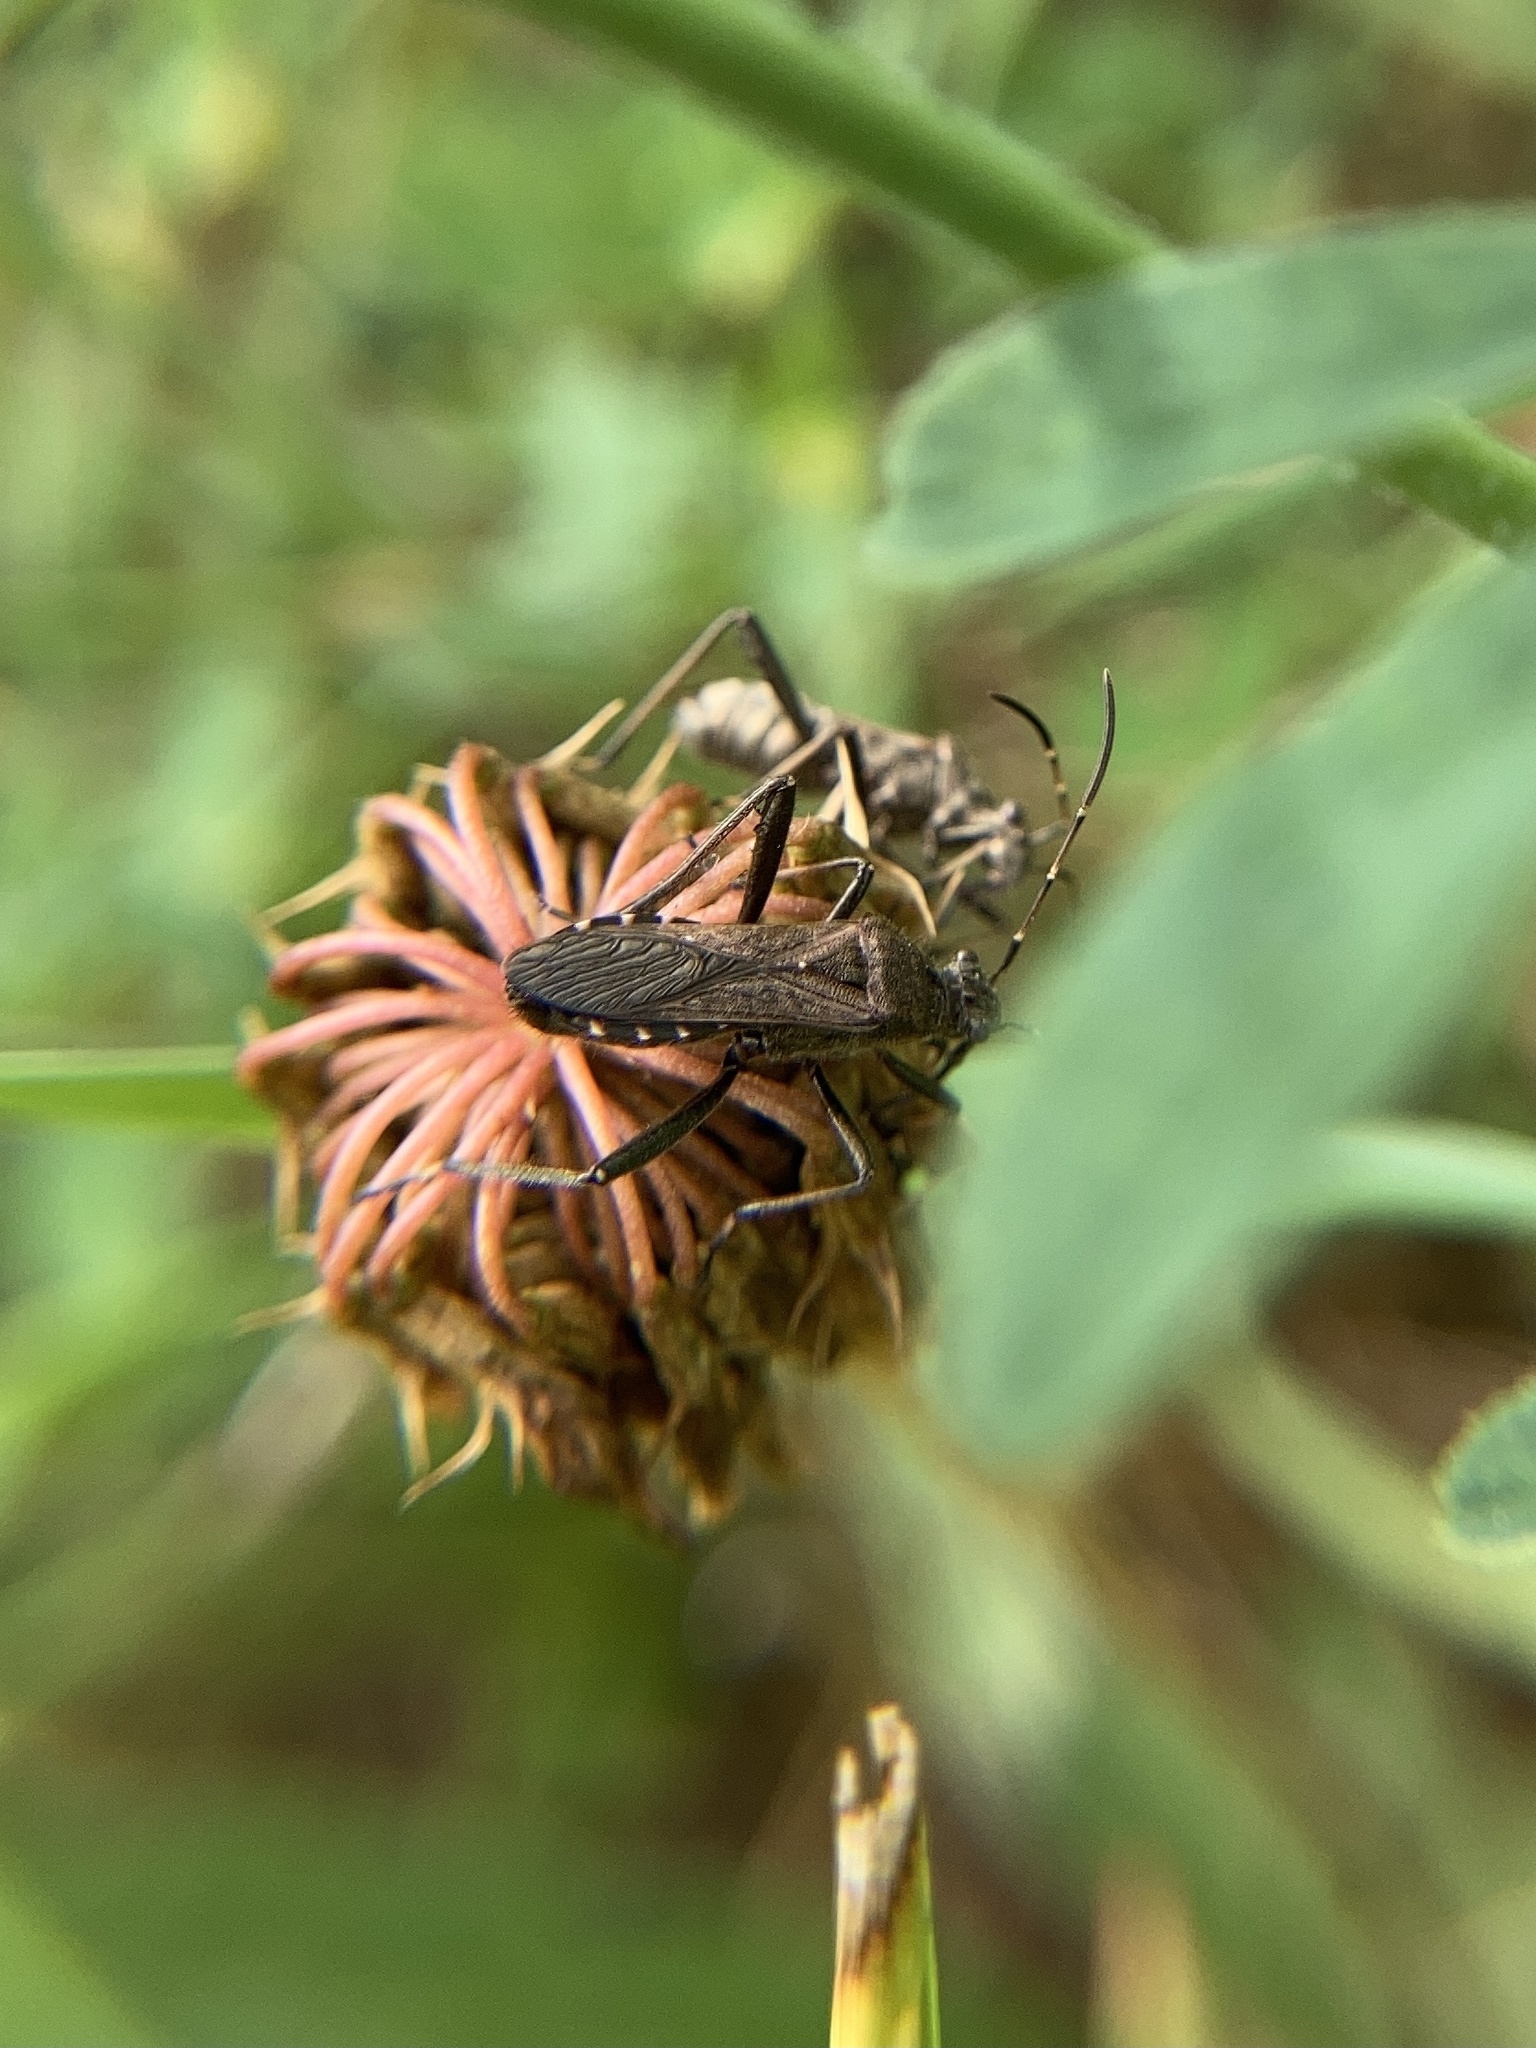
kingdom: Animalia
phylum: Arthropoda
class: Insecta
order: Hemiptera
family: Alydidae
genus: Alydus
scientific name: Alydus calcaratus
